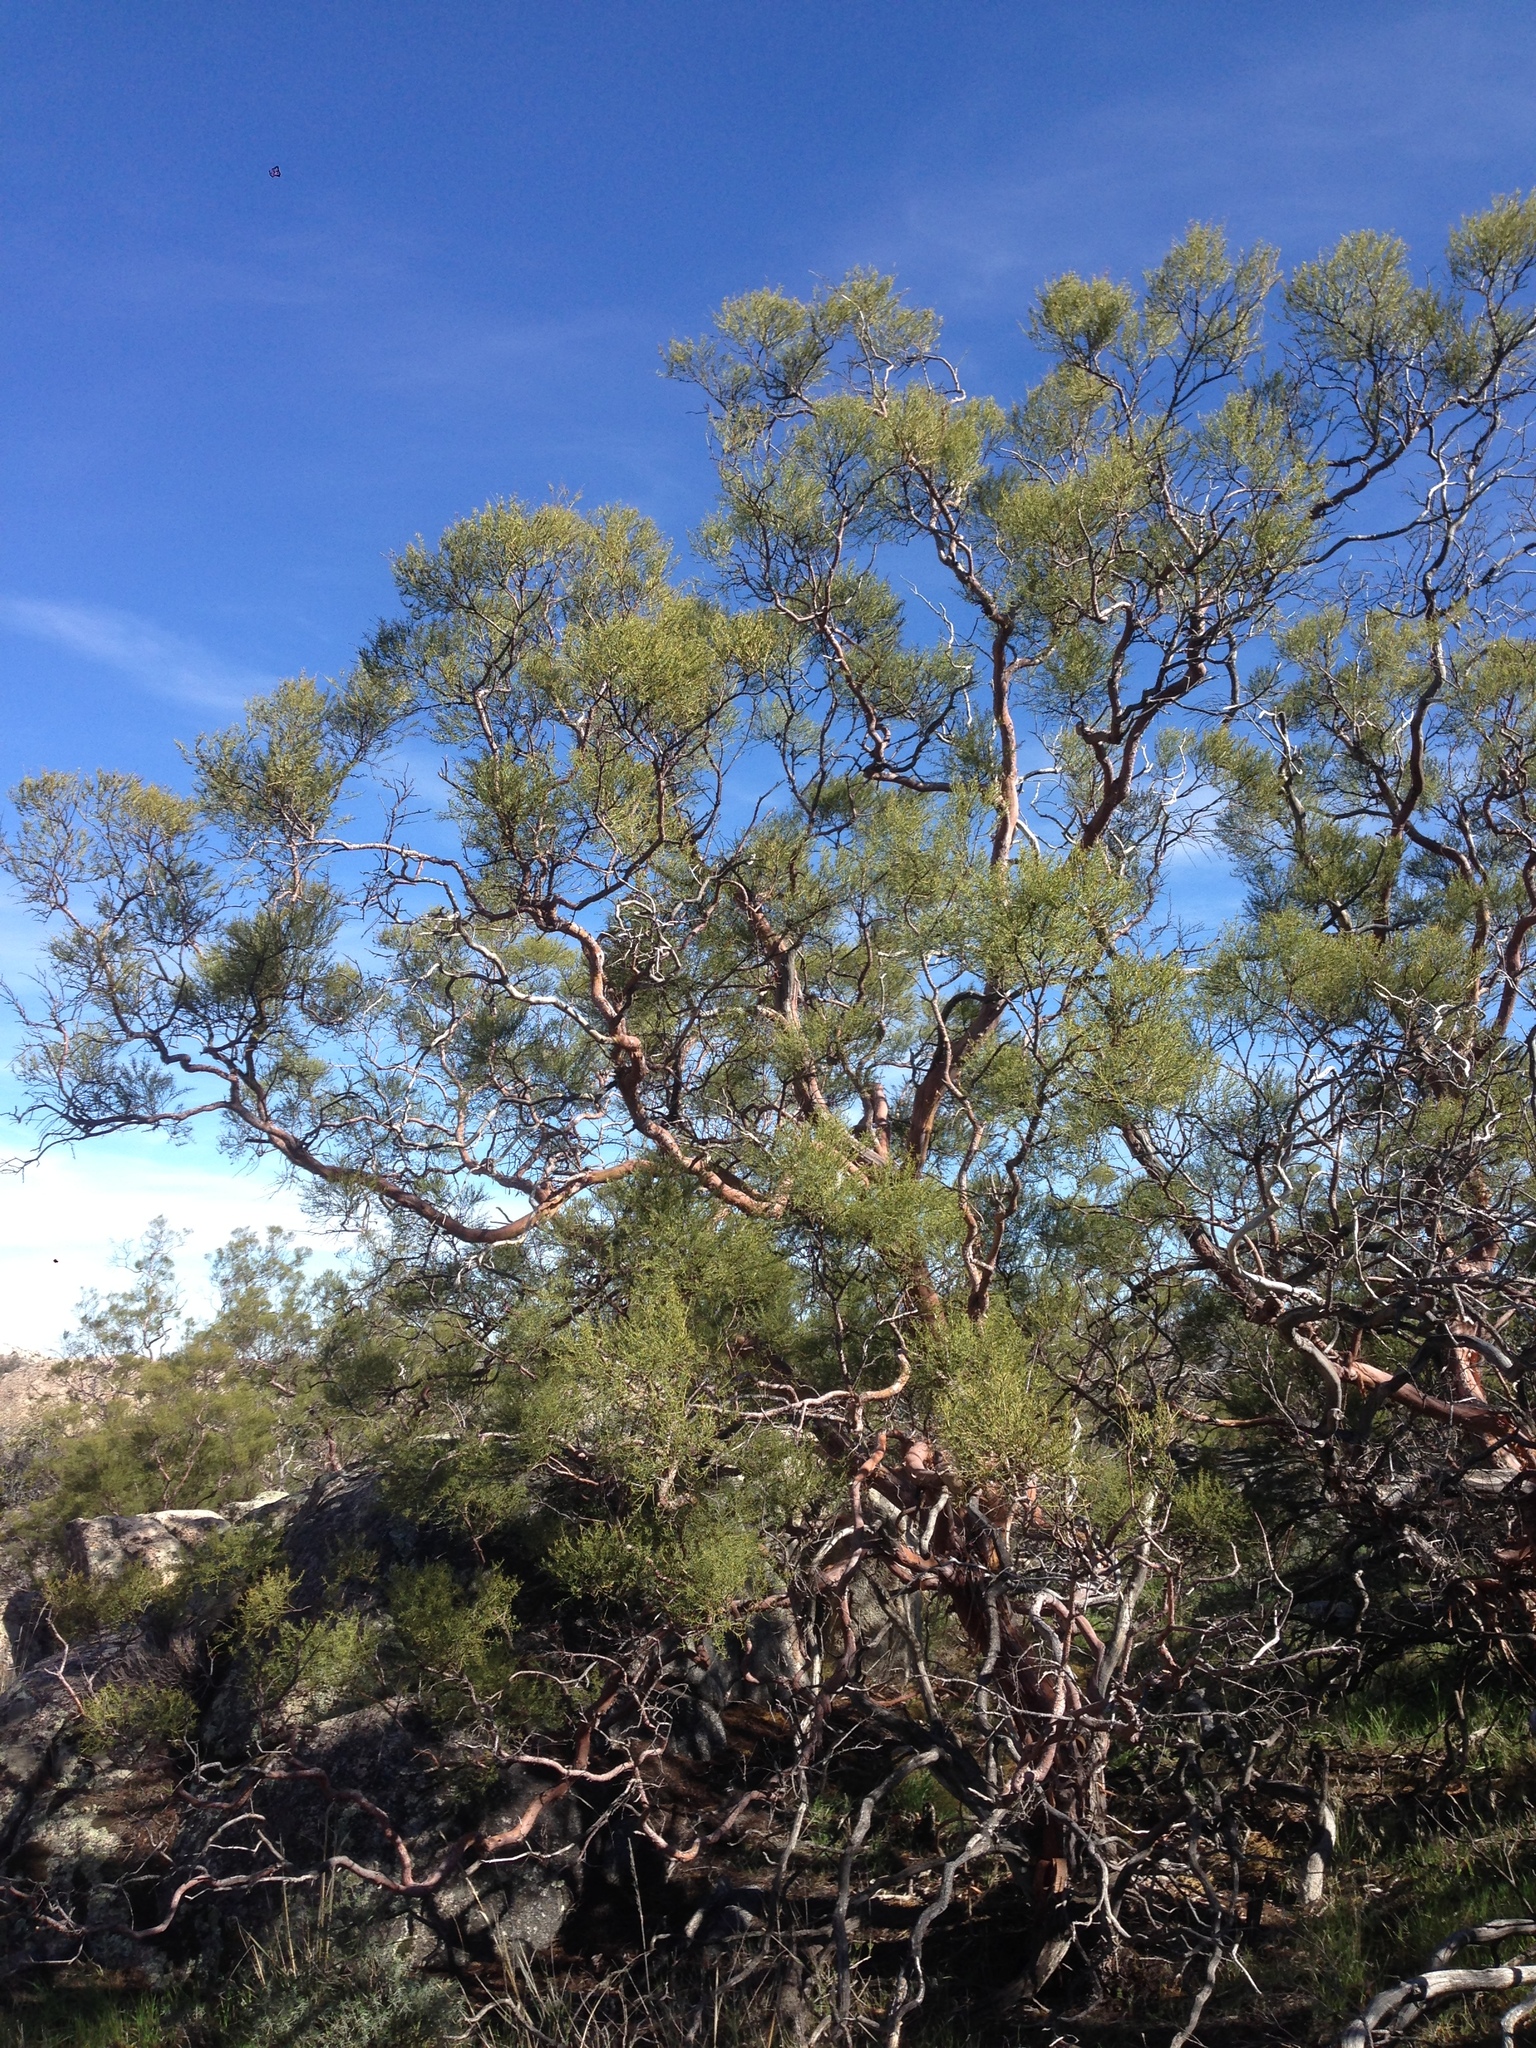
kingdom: Plantae
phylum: Tracheophyta
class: Magnoliopsida
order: Rosales
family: Rosaceae
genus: Adenostoma
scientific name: Adenostoma sparsifolium
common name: Red shank
